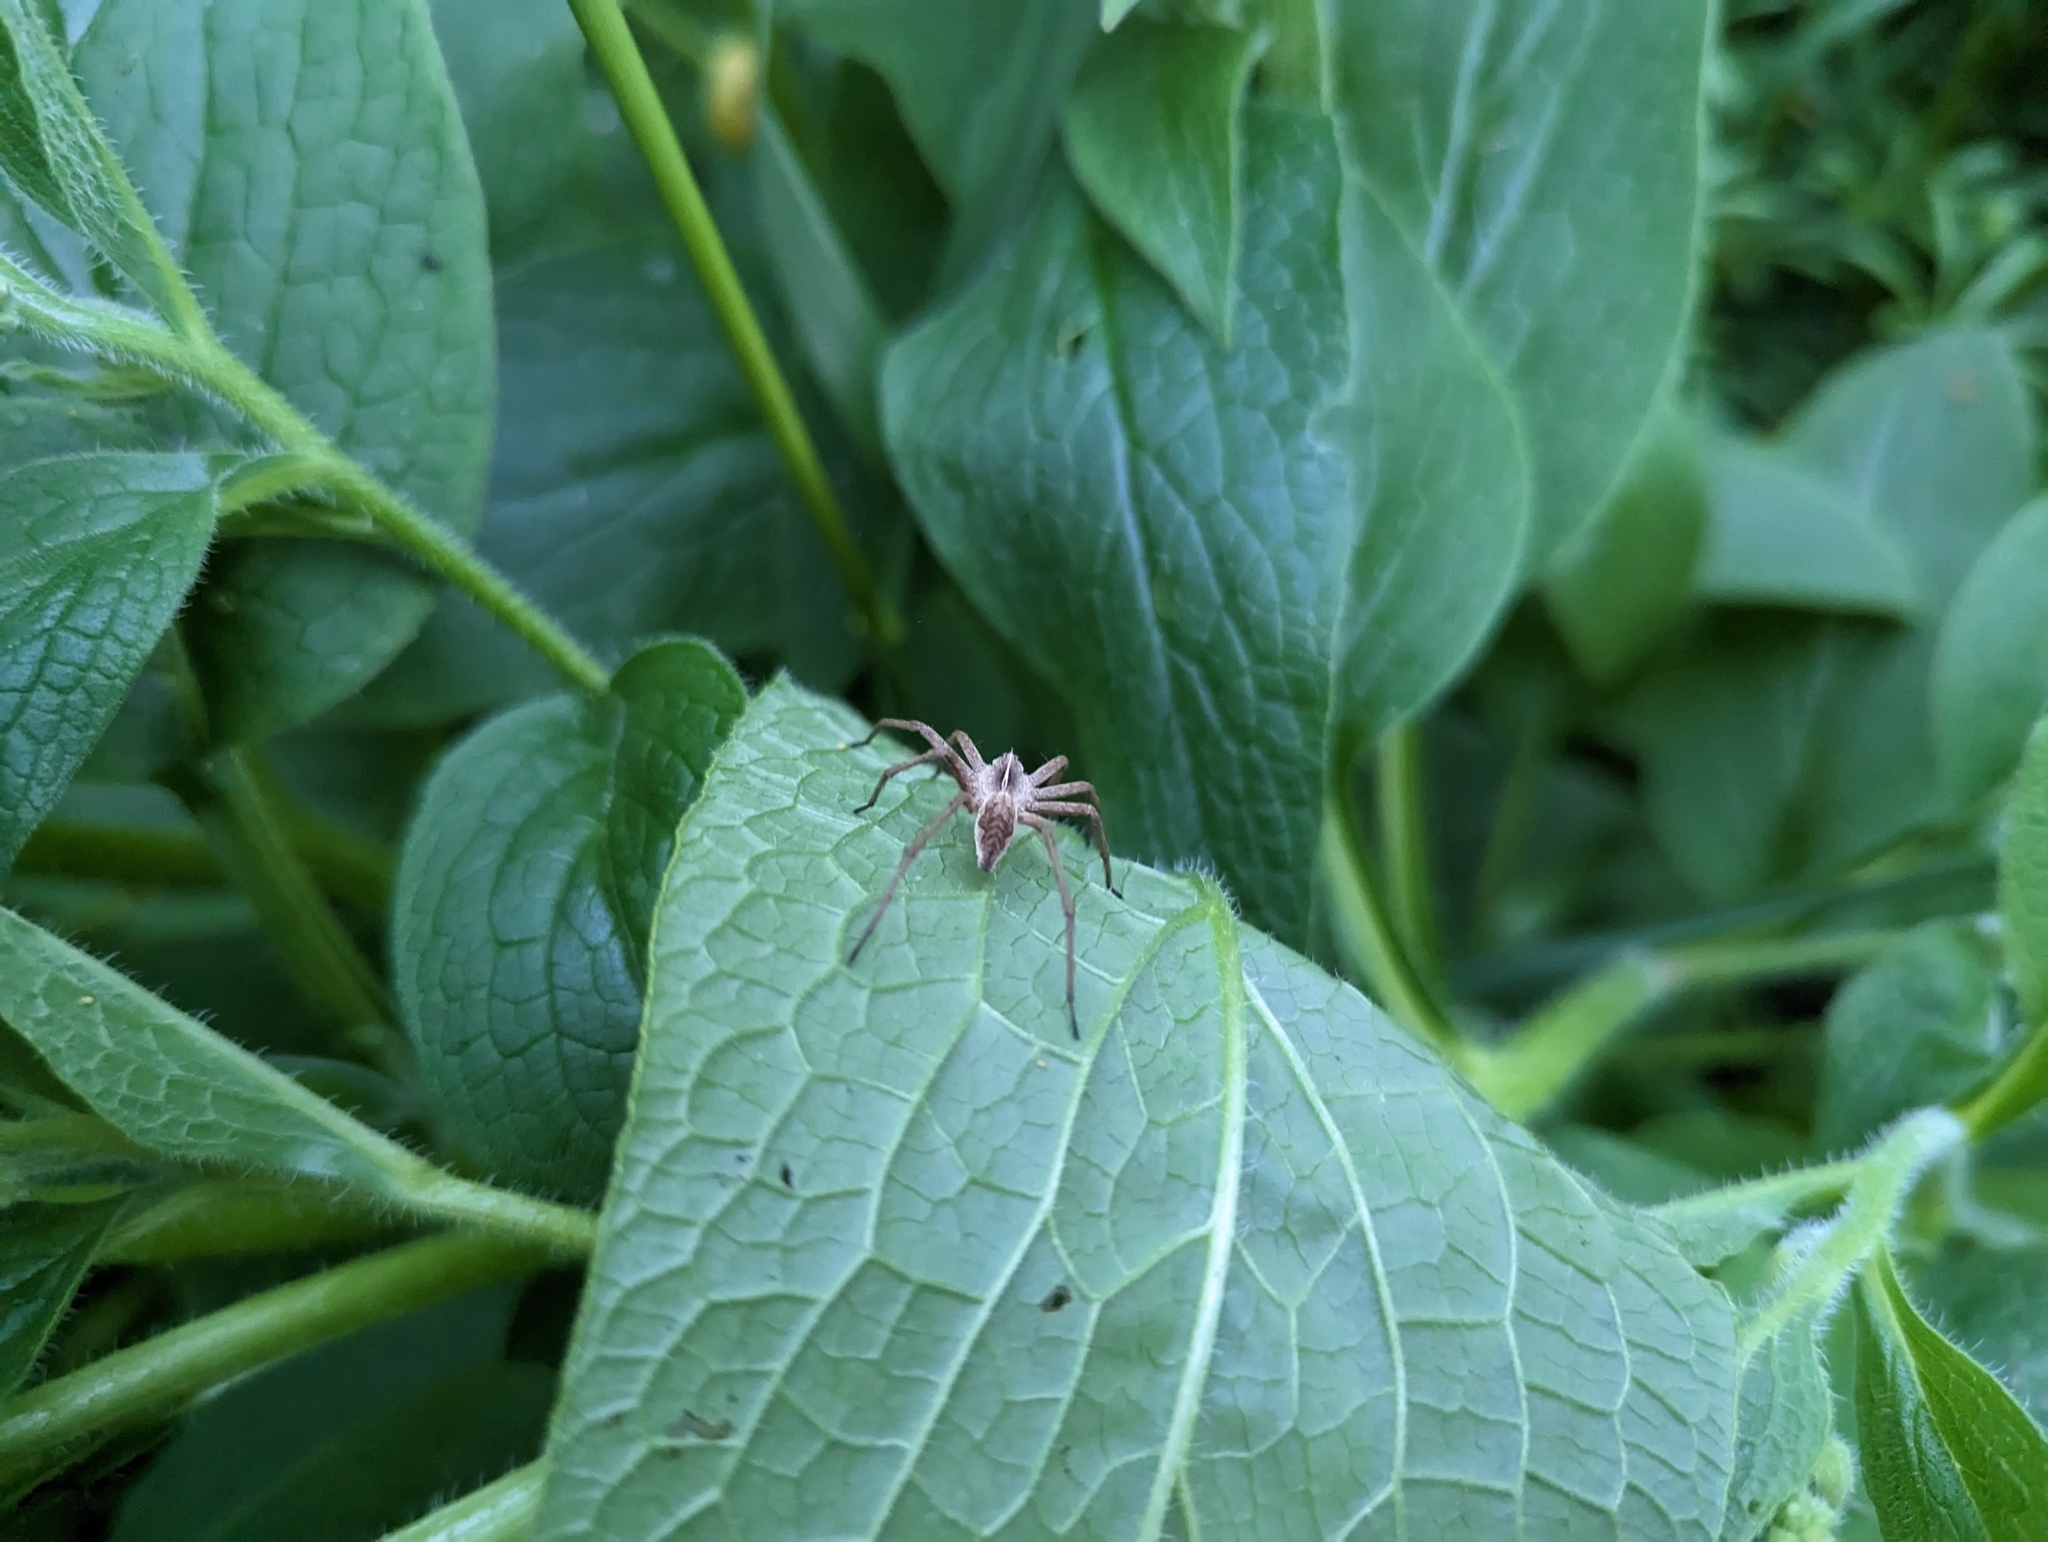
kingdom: Animalia
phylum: Arthropoda
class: Arachnida
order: Araneae
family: Pisauridae
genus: Pisaura
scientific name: Pisaura mirabilis
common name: Tent spider
